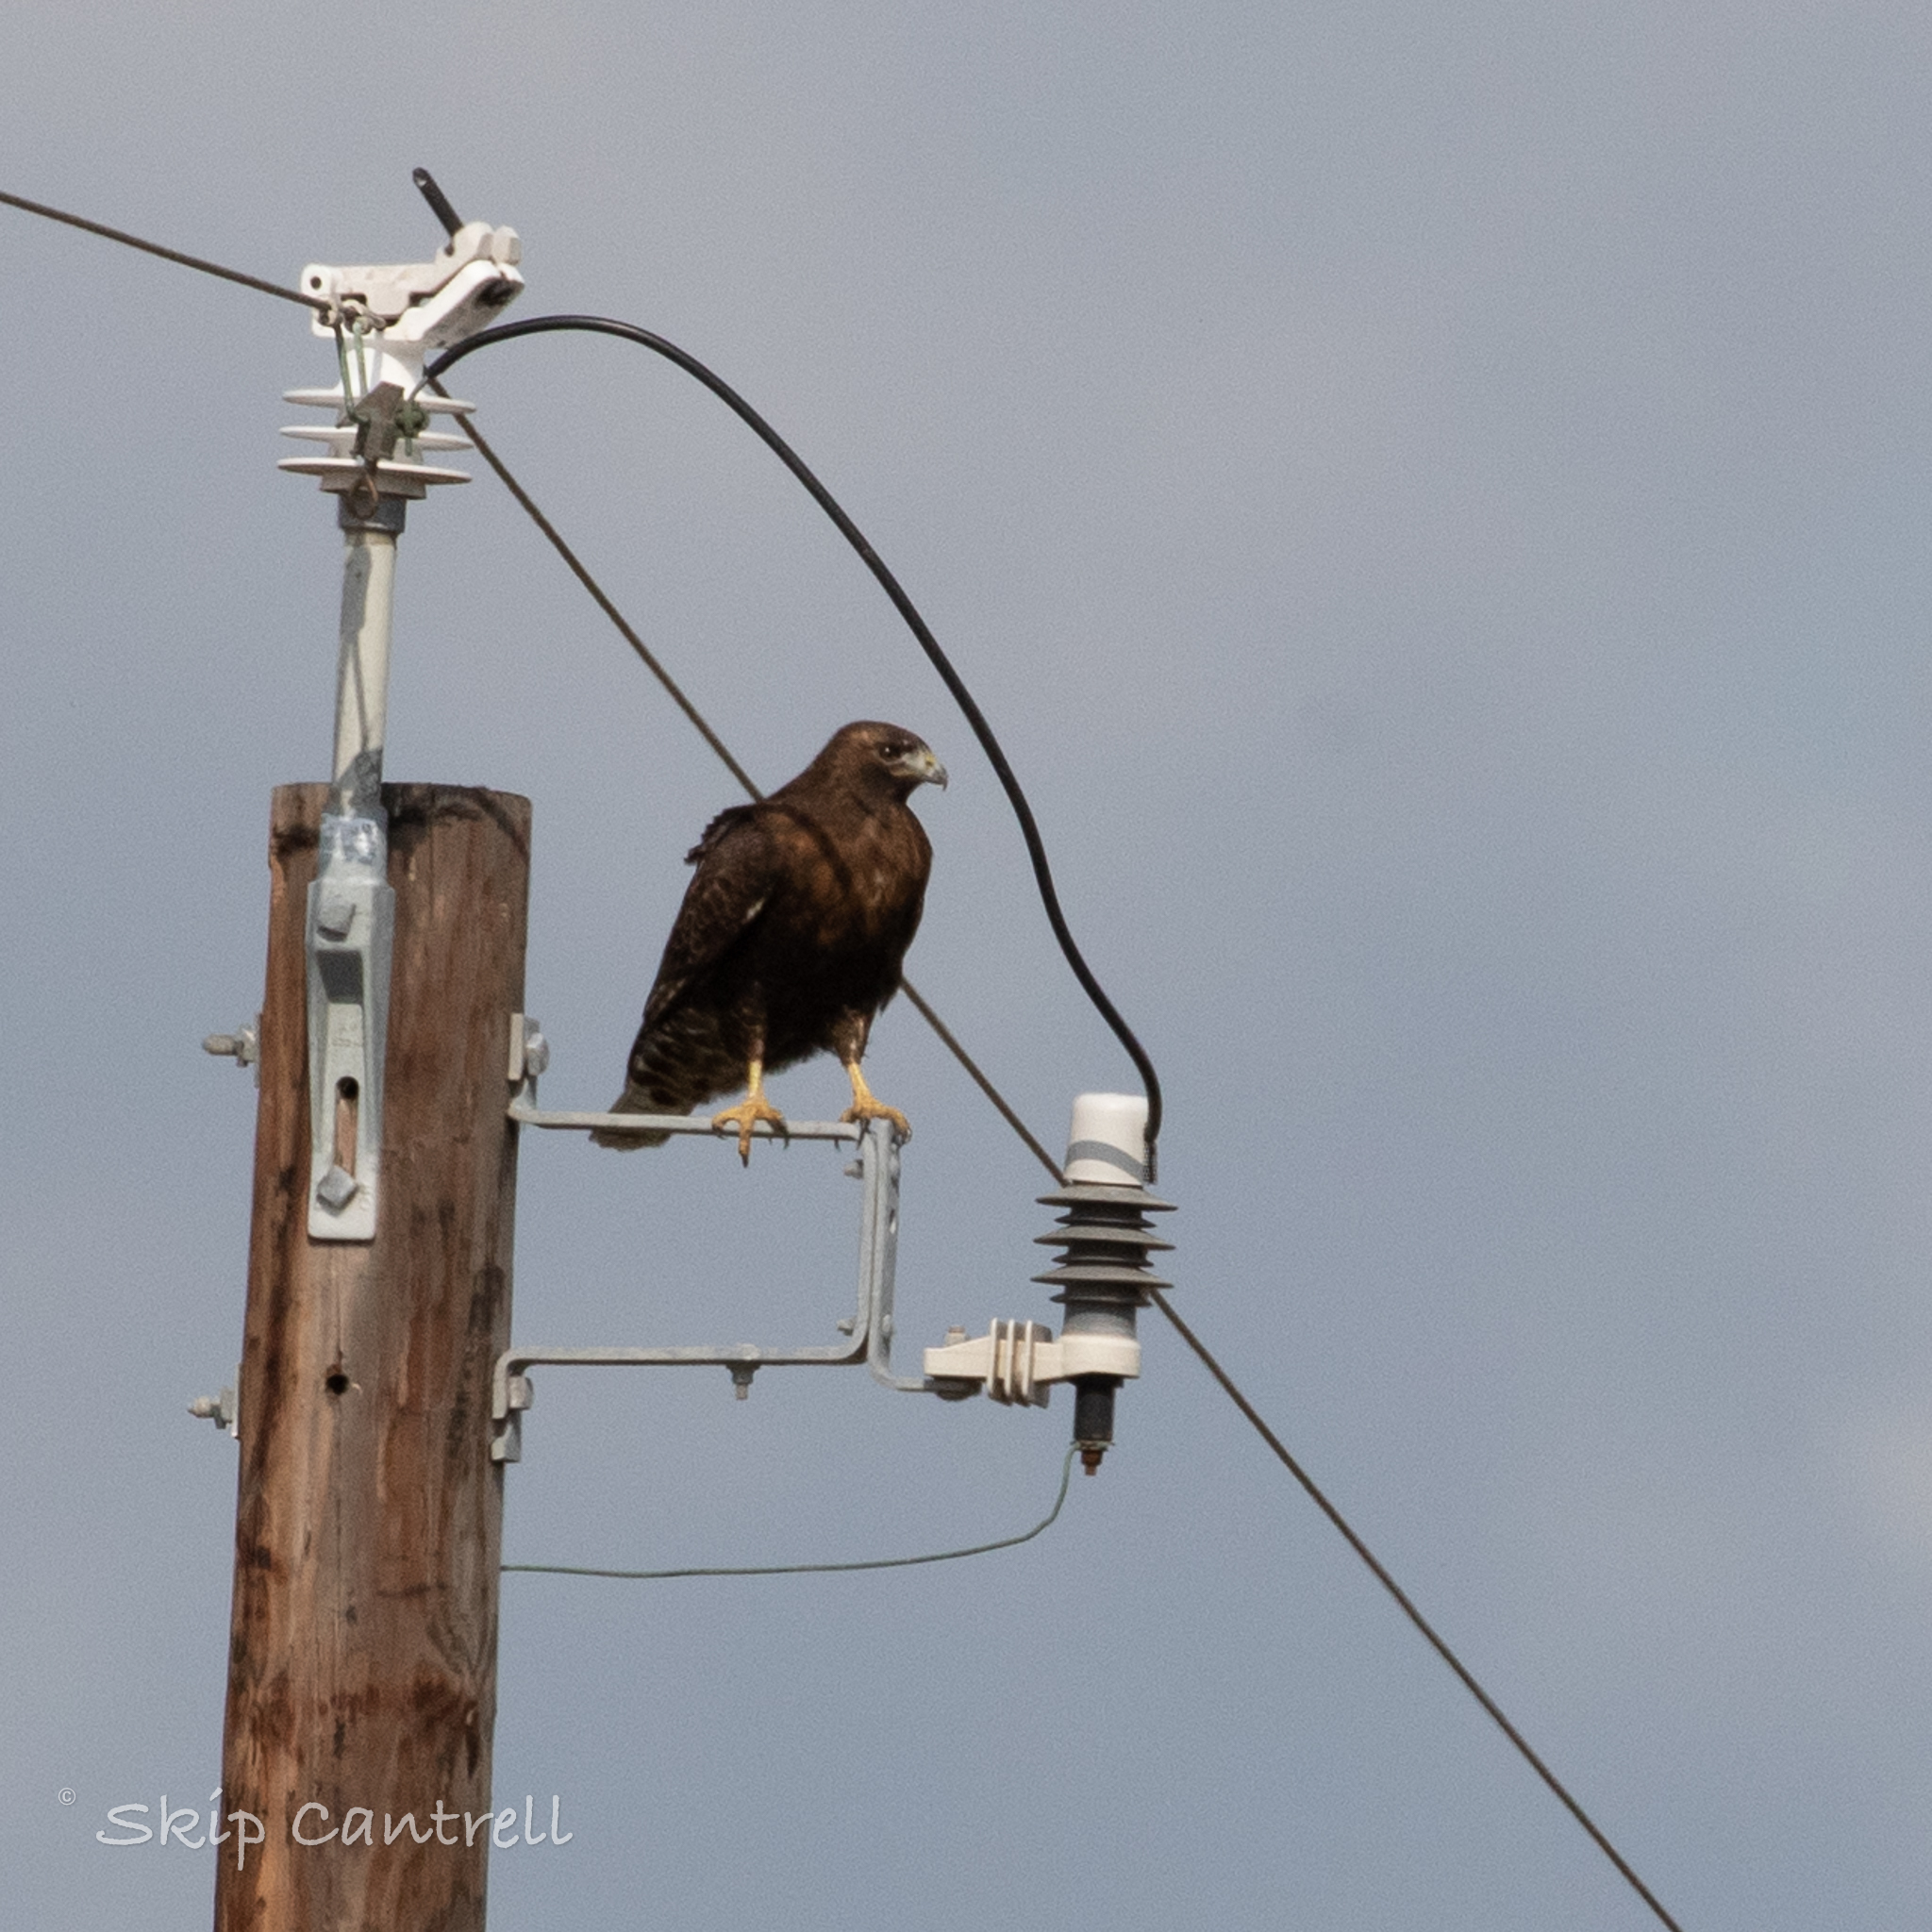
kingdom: Animalia
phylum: Chordata
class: Aves
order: Accipitriformes
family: Accipitridae
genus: Buteo
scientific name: Buteo jamaicensis
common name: Red-tailed hawk
